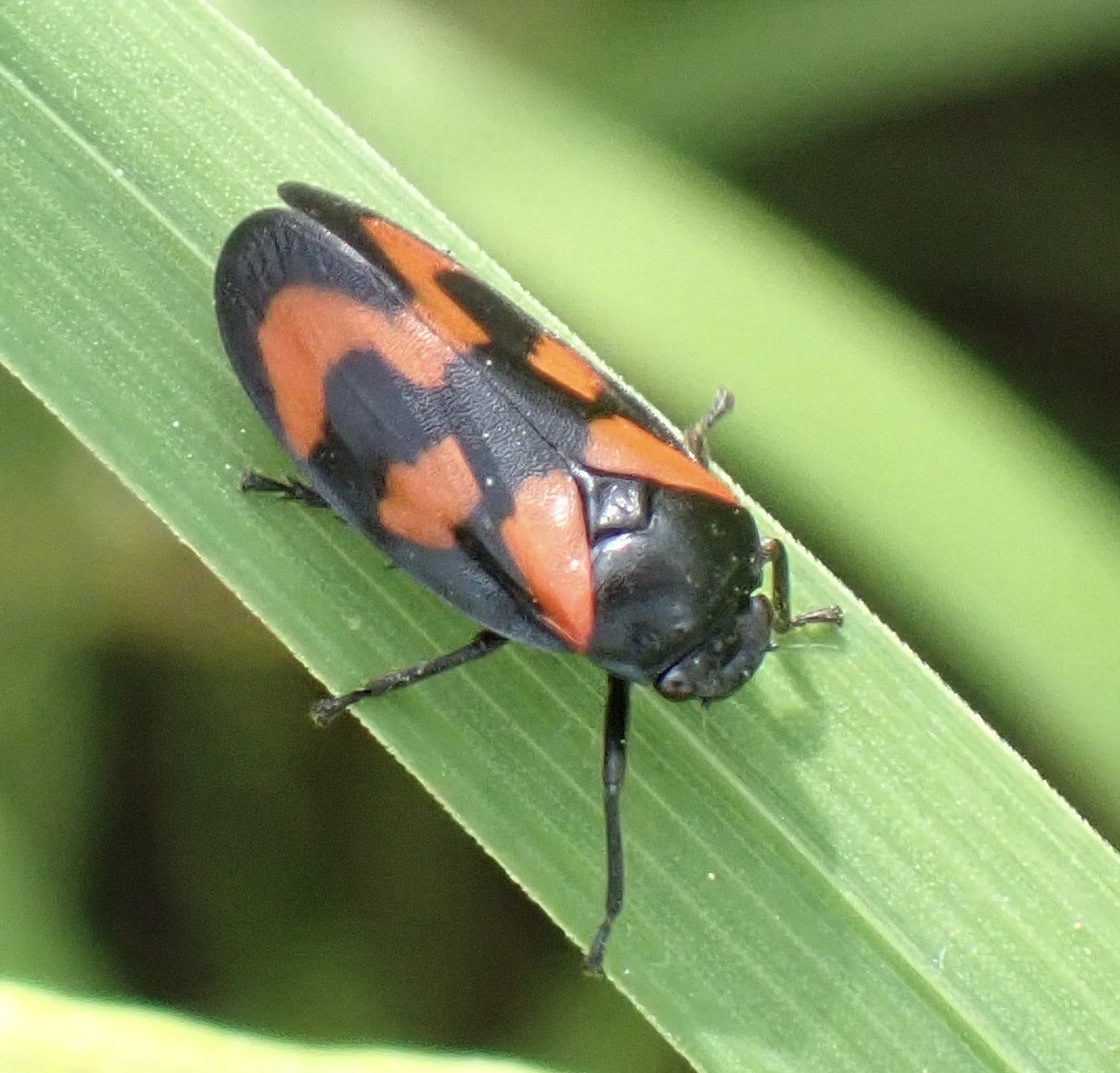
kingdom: Animalia
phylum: Arthropoda
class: Insecta
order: Hemiptera
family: Cercopidae
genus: Cercopis
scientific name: Cercopis vulnerata
